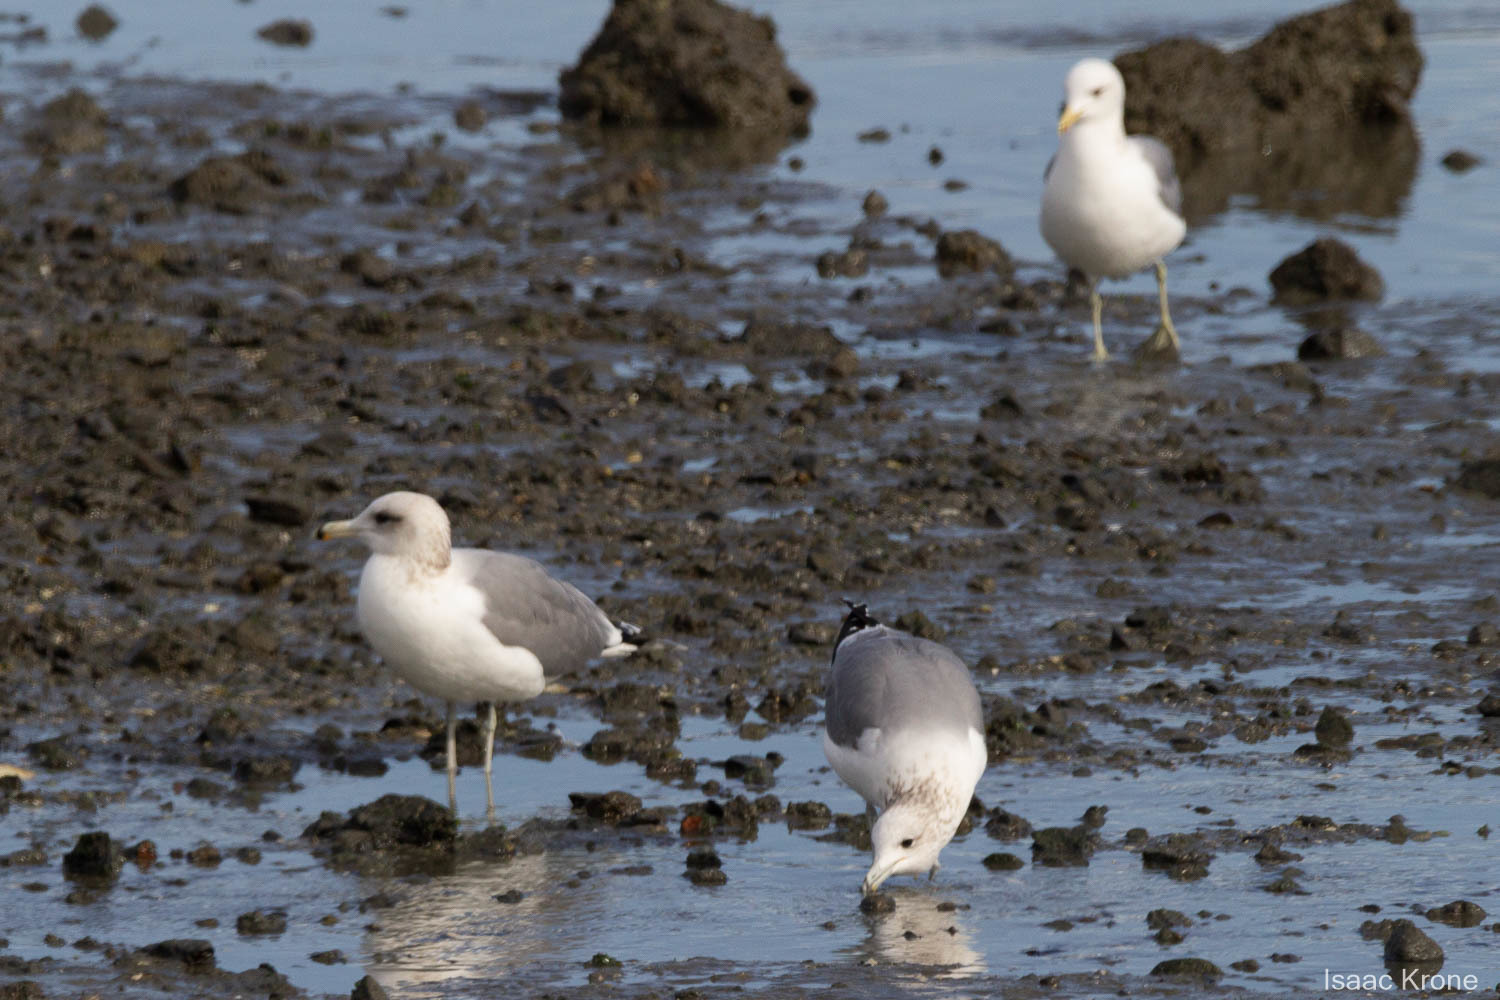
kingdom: Animalia
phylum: Chordata
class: Aves
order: Charadriiformes
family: Laridae
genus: Larus
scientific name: Larus californicus
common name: California gull
